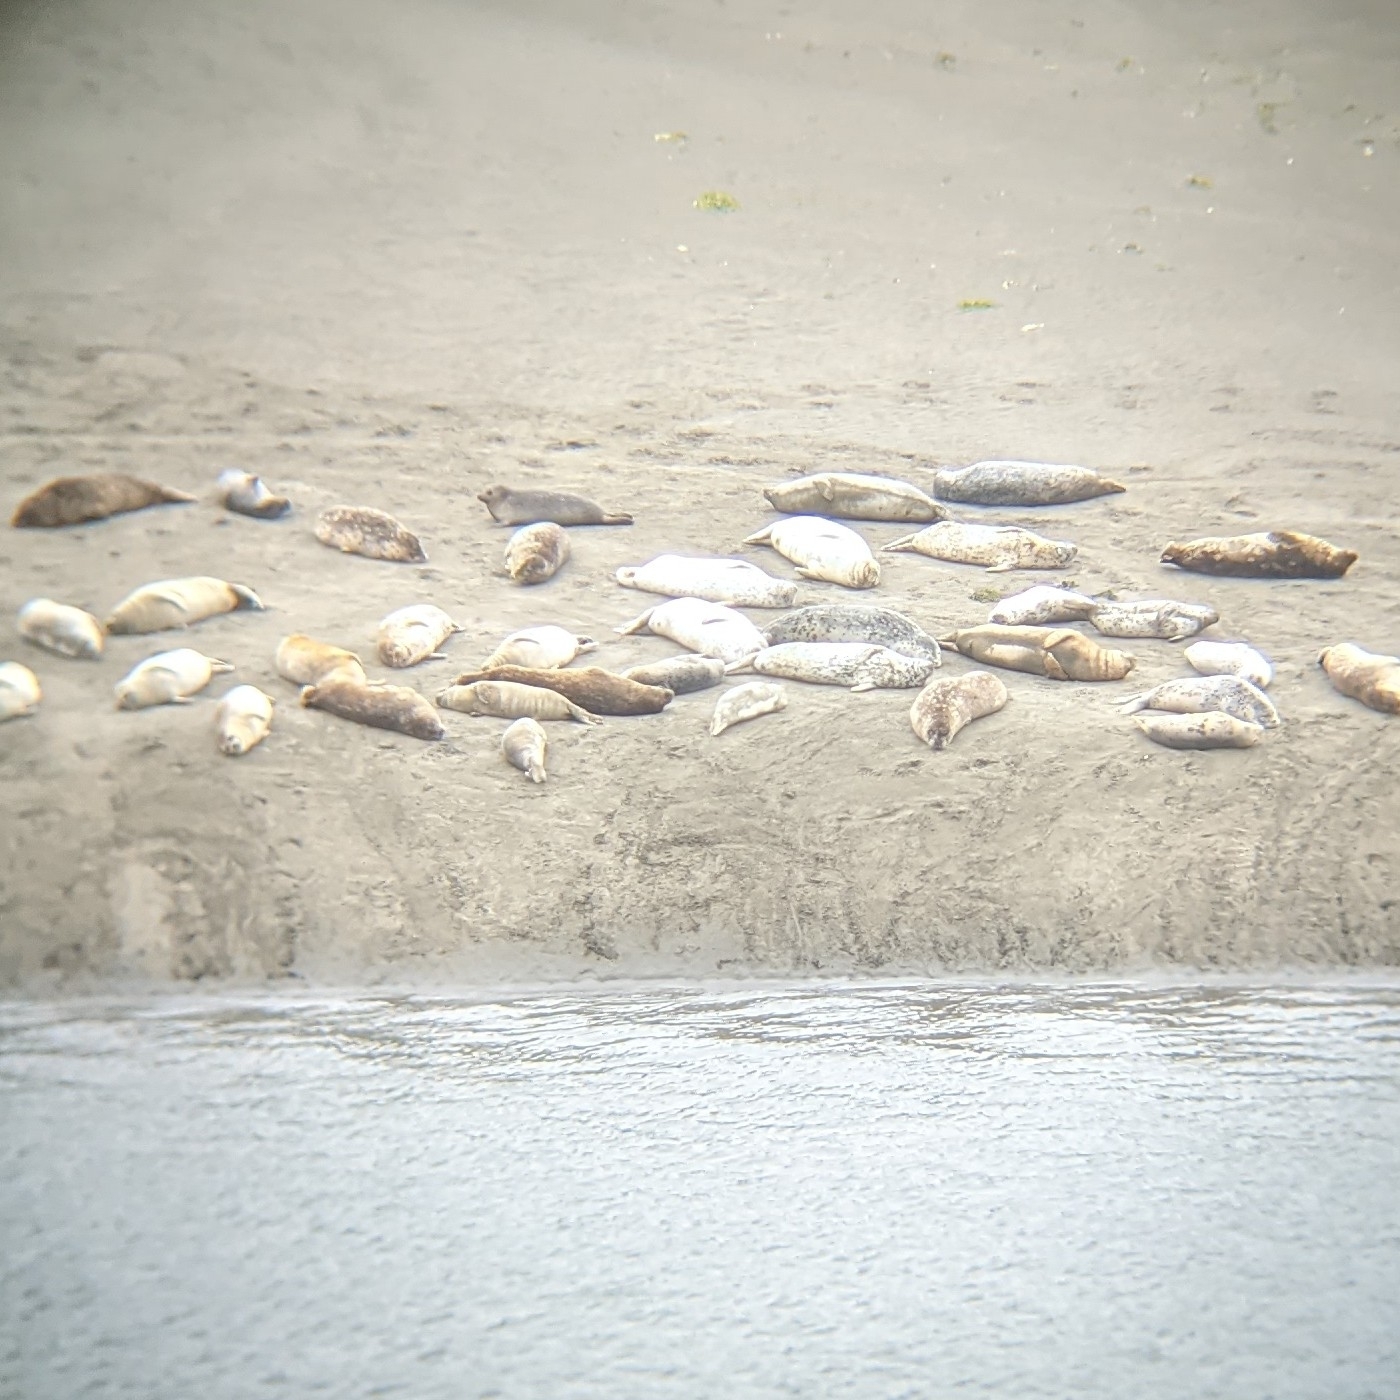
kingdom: Animalia
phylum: Chordata
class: Mammalia
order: Carnivora
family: Phocidae
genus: Phoca
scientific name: Phoca vitulina
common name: Harbor seal
